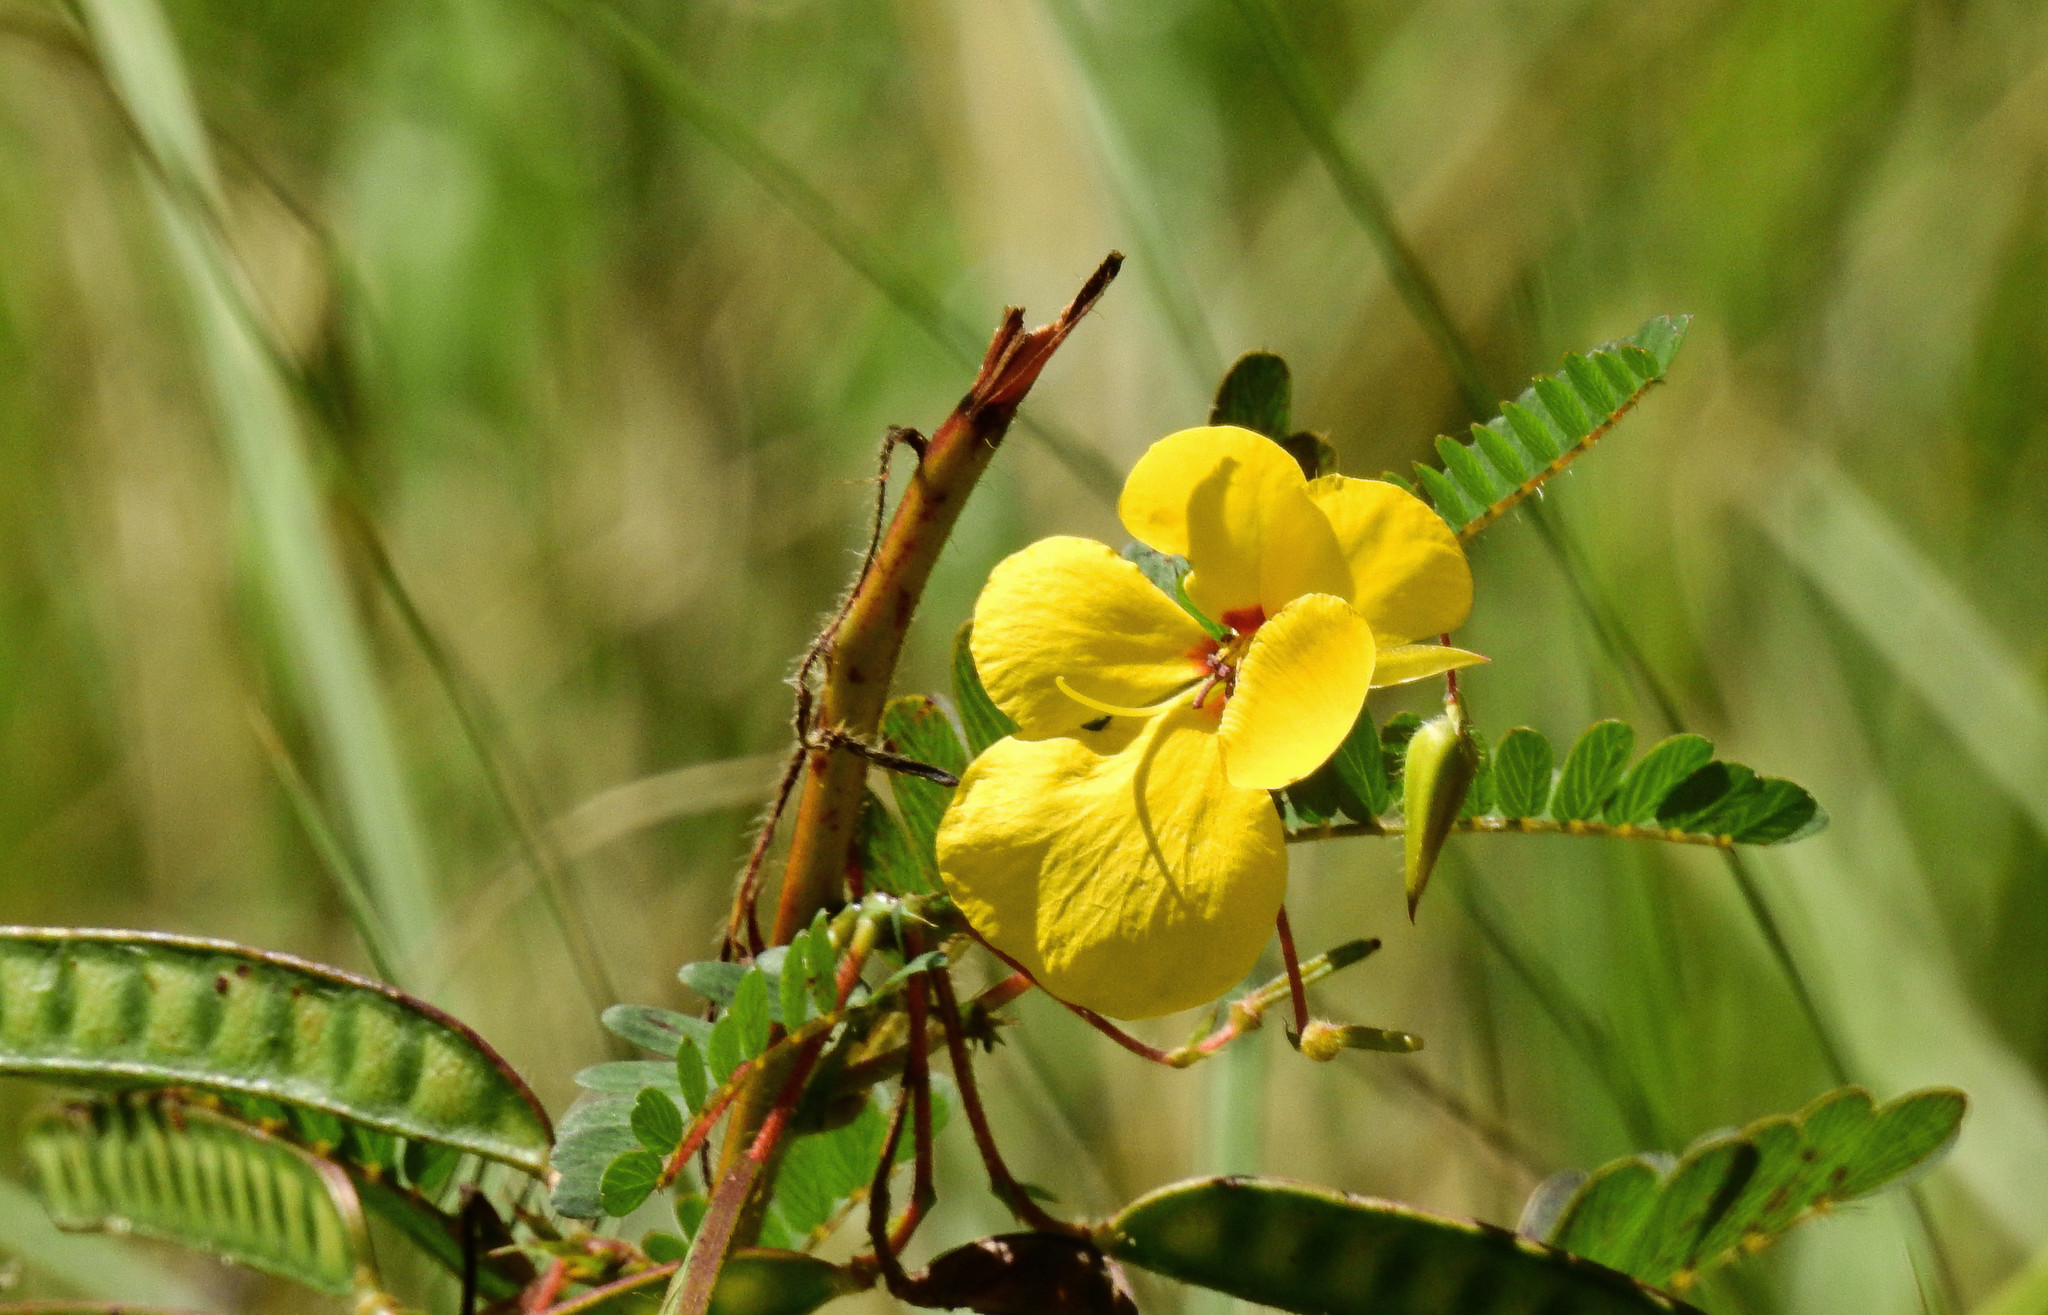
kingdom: Plantae
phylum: Tracheophyta
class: Magnoliopsida
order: Fabales
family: Fabaceae
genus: Chamaecrista
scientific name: Chamaecrista fasciculata
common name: Golden cassia
